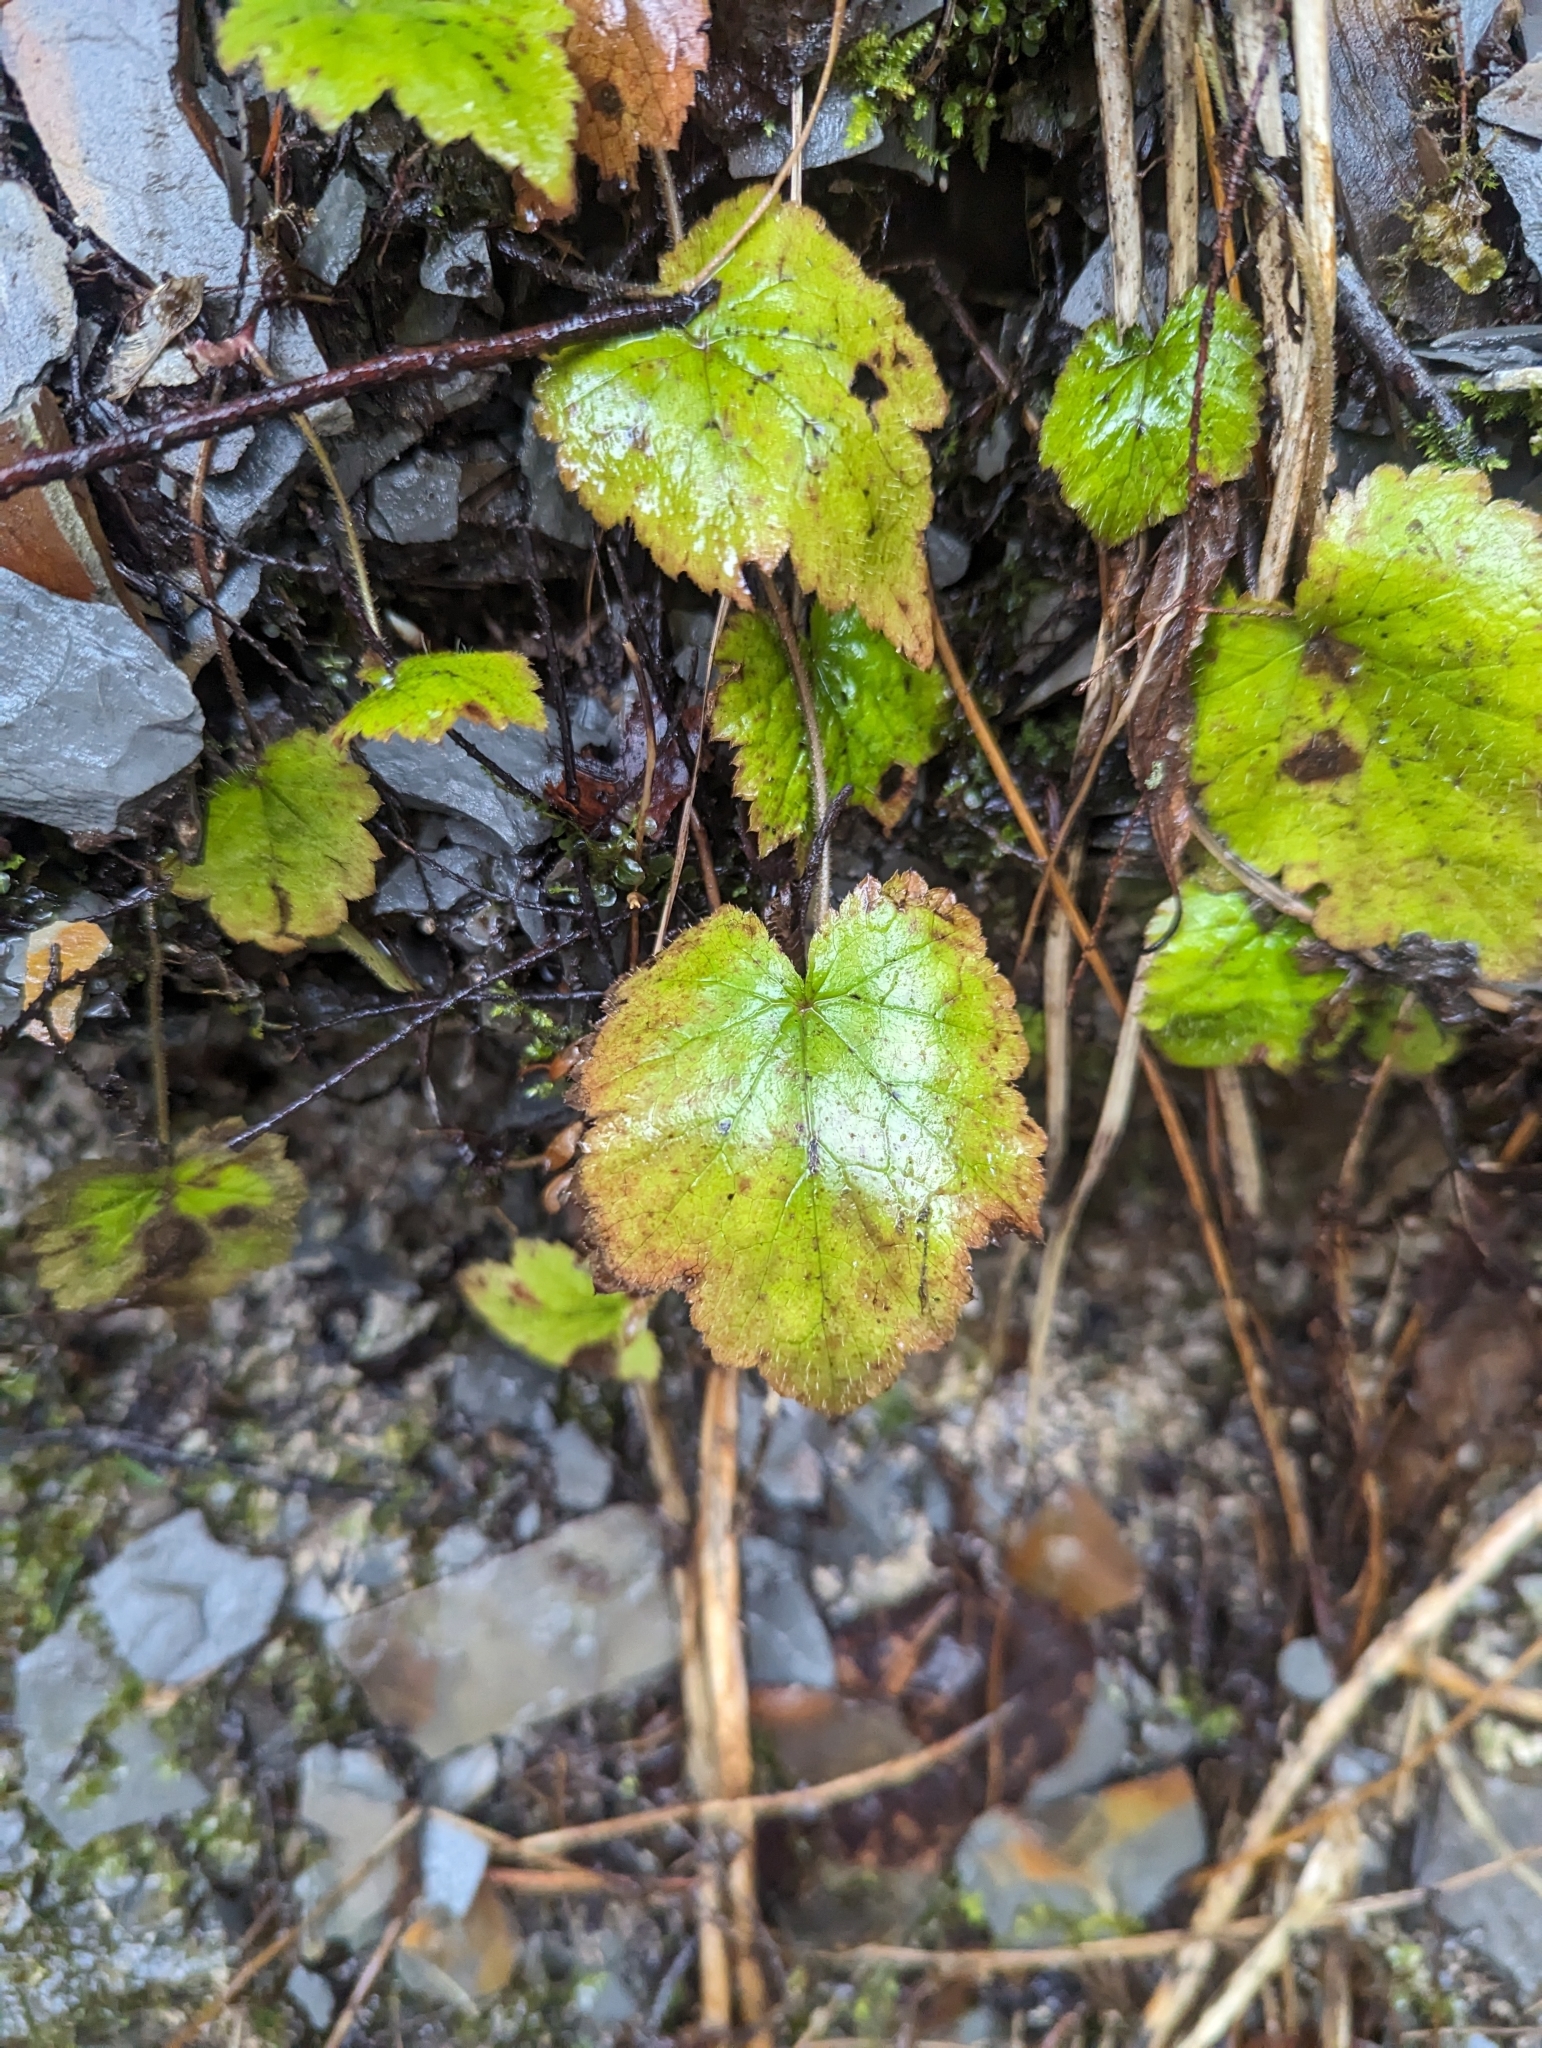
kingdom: Plantae
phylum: Tracheophyta
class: Magnoliopsida
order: Saxifragales
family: Saxifragaceae
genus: Tiarella
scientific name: Tiarella stolonifera
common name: Stoloniferous foamflower
